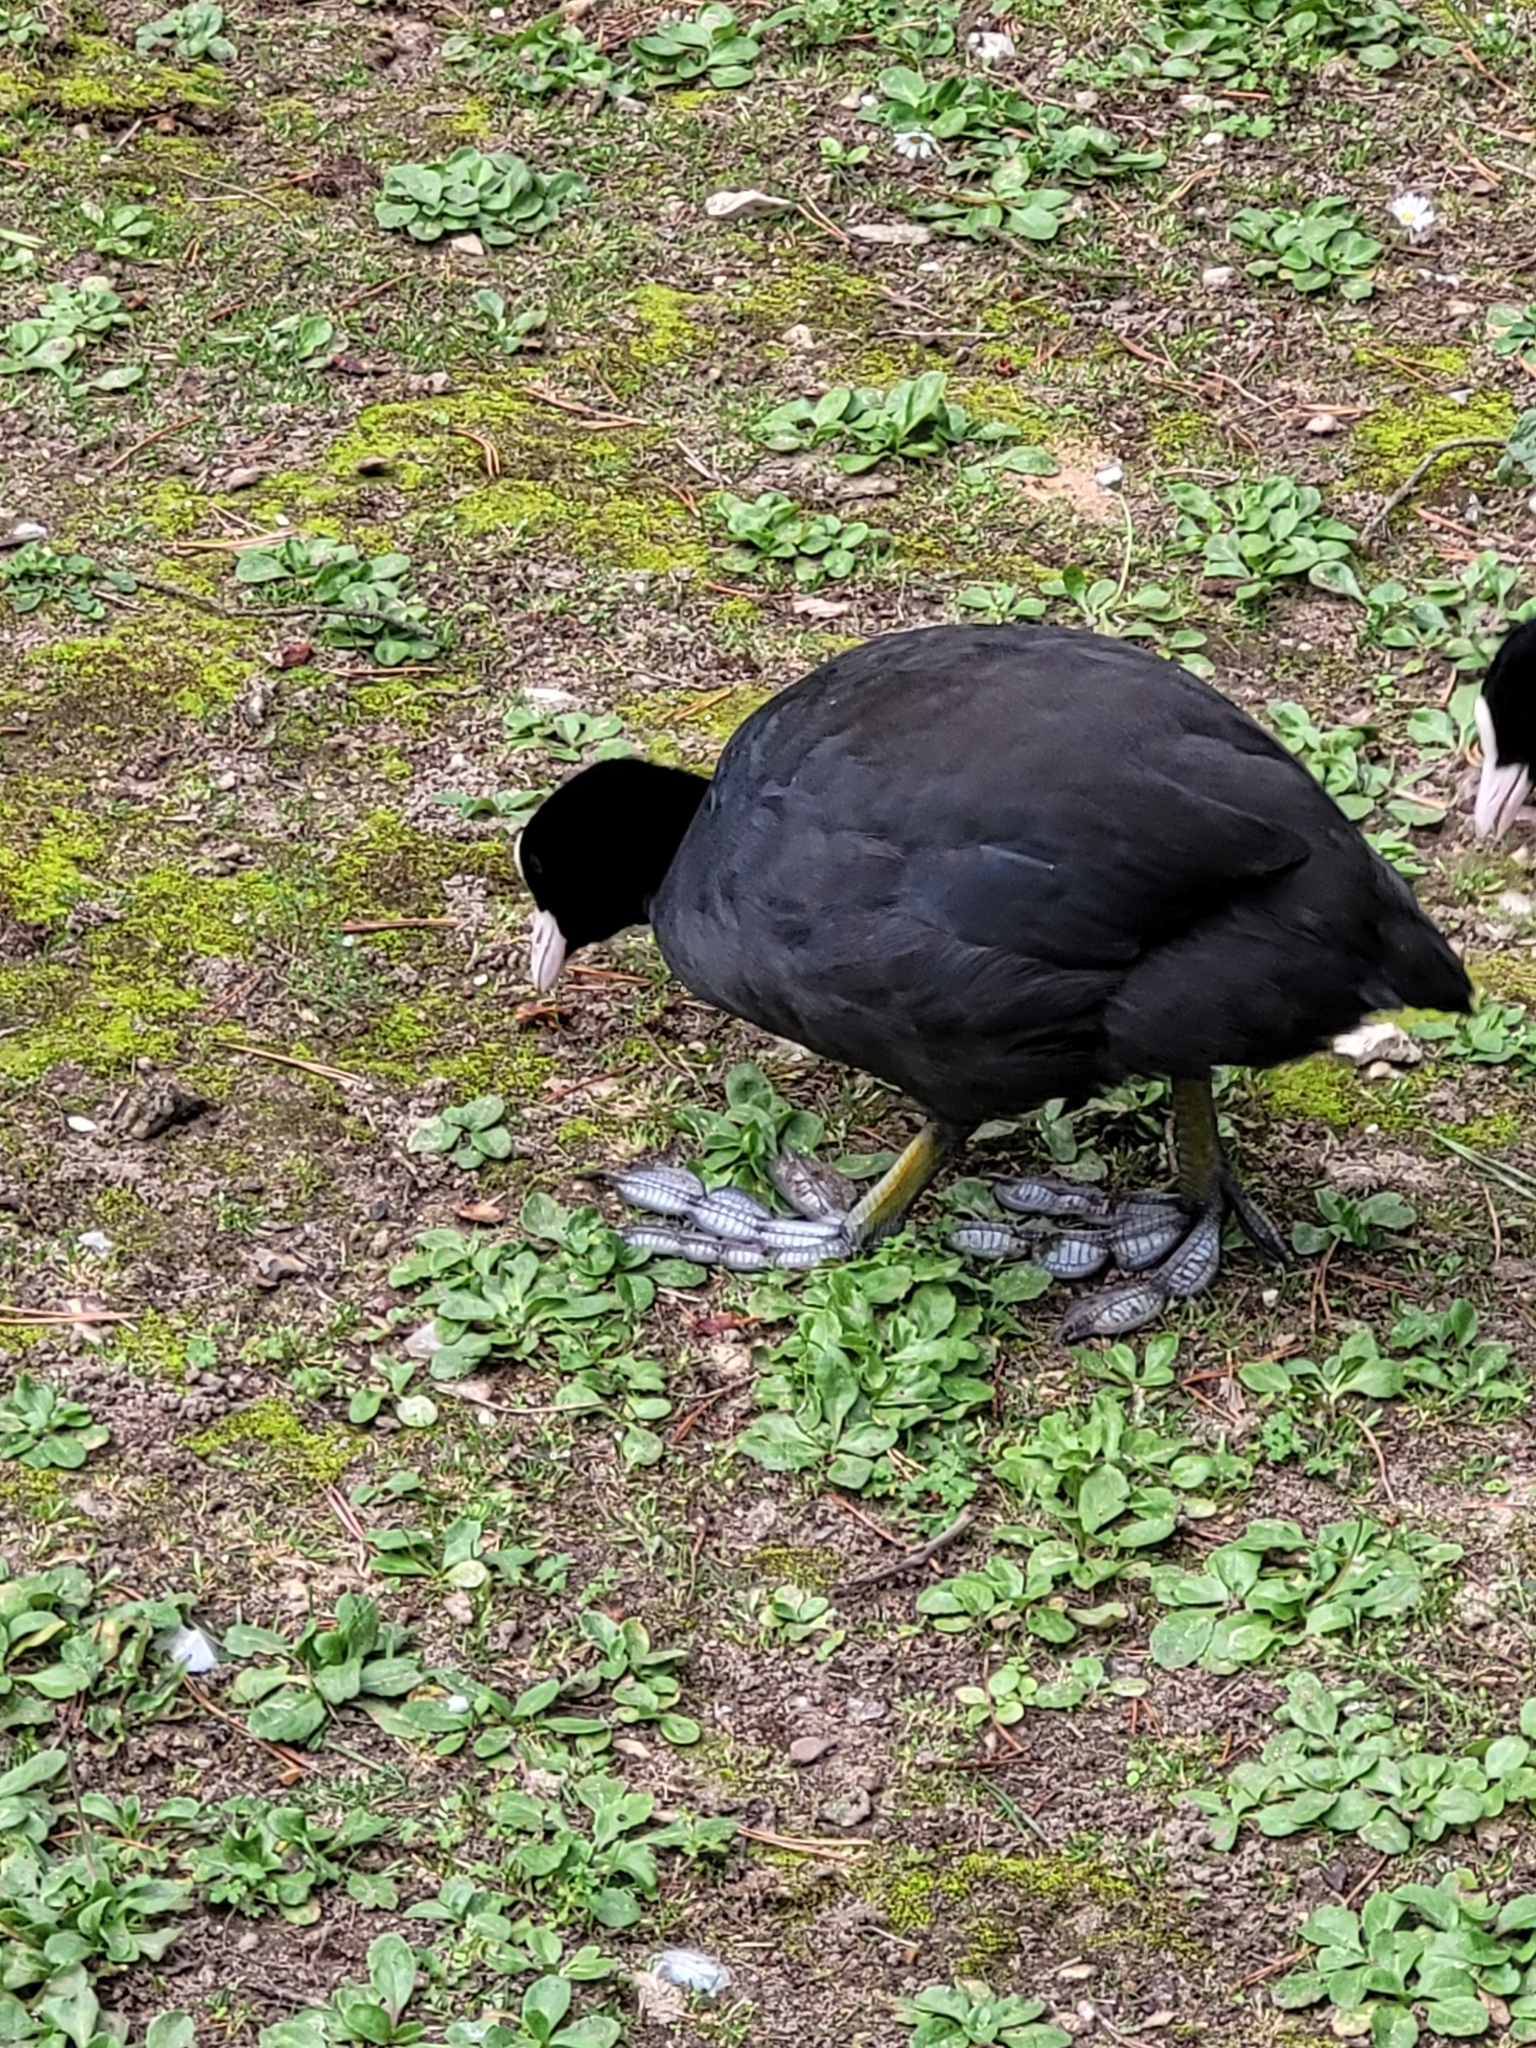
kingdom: Animalia
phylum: Chordata
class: Aves
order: Gruiformes
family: Rallidae
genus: Fulica
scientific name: Fulica atra
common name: Eurasian coot
